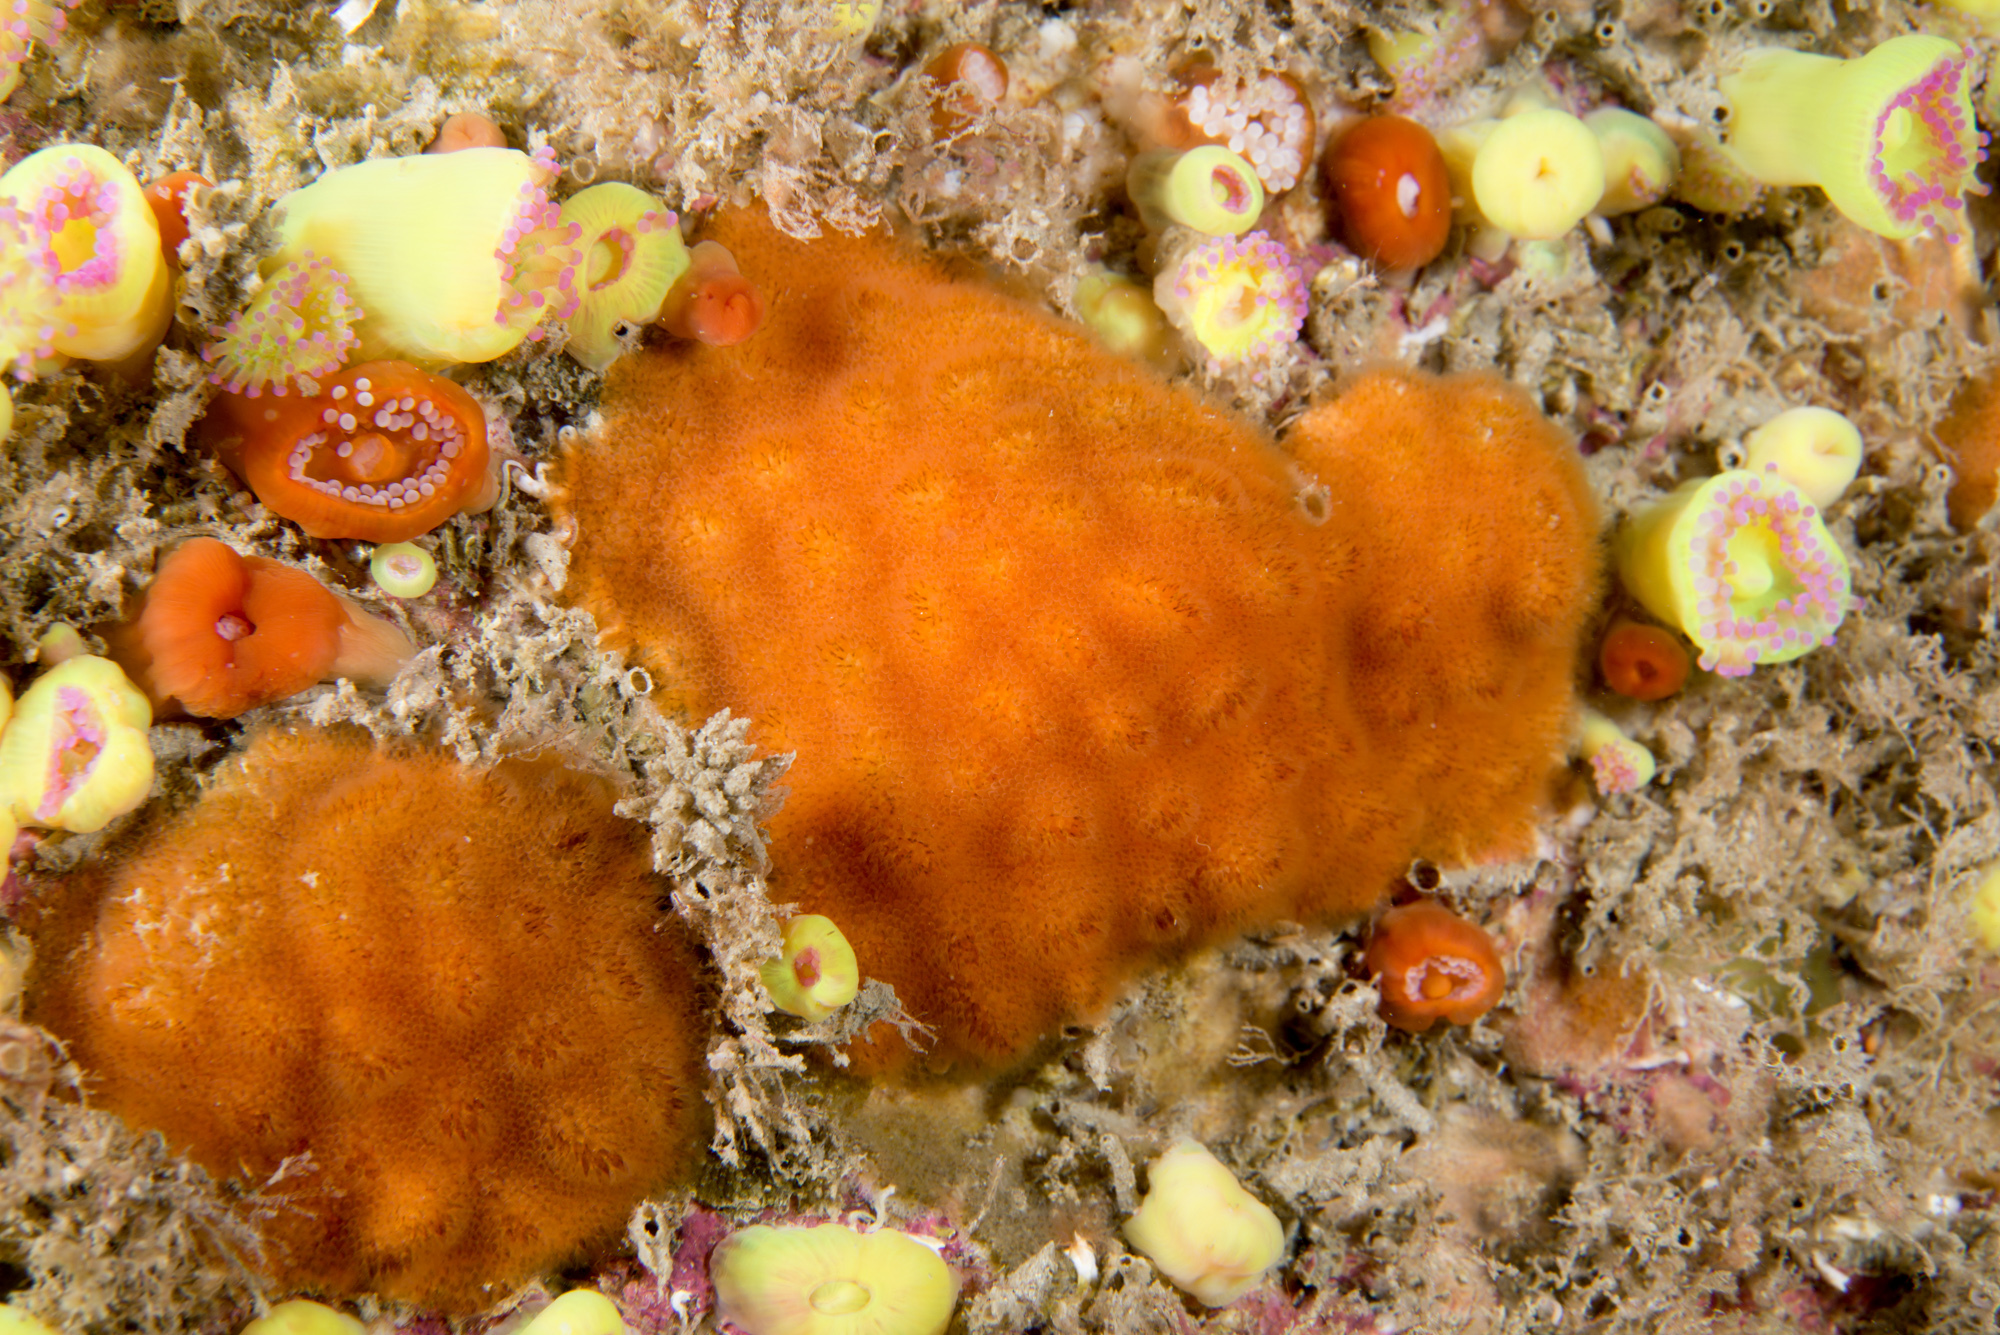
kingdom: Animalia
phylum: Bryozoa
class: Gymnolaemata
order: Cheilostomatida
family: Celleporidae
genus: Cellepora
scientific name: Cellepora pumicosa
